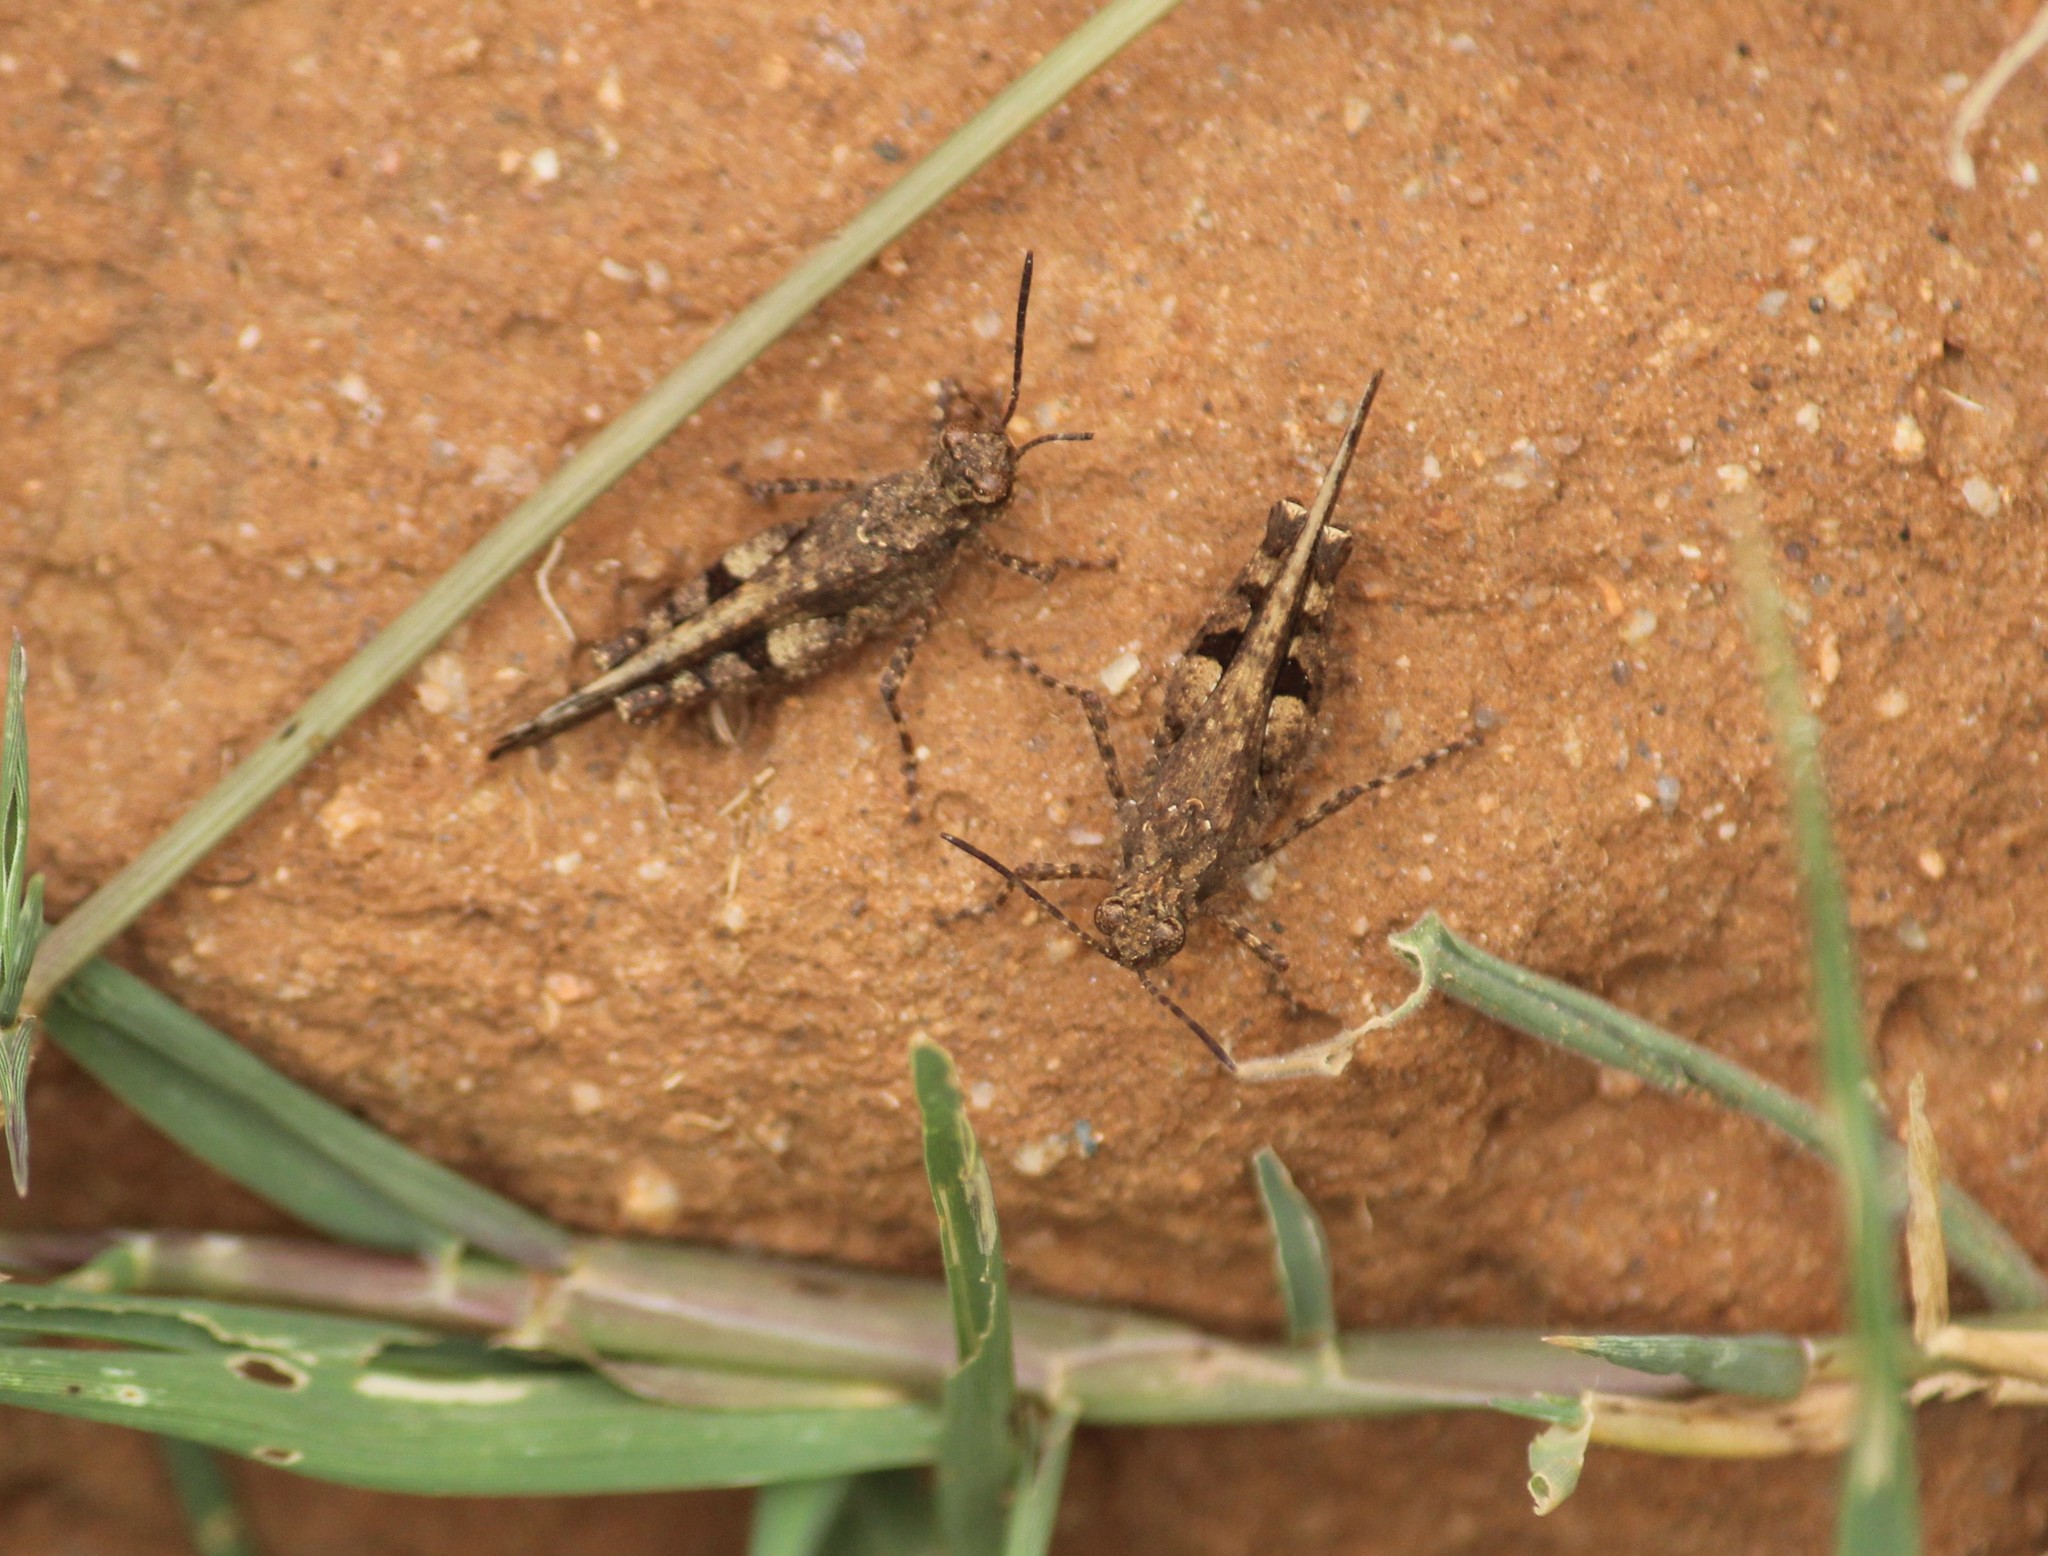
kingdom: Animalia
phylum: Arthropoda
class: Insecta
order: Orthoptera
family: Acrididae
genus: Trilophidia
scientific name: Trilophidia annulata
